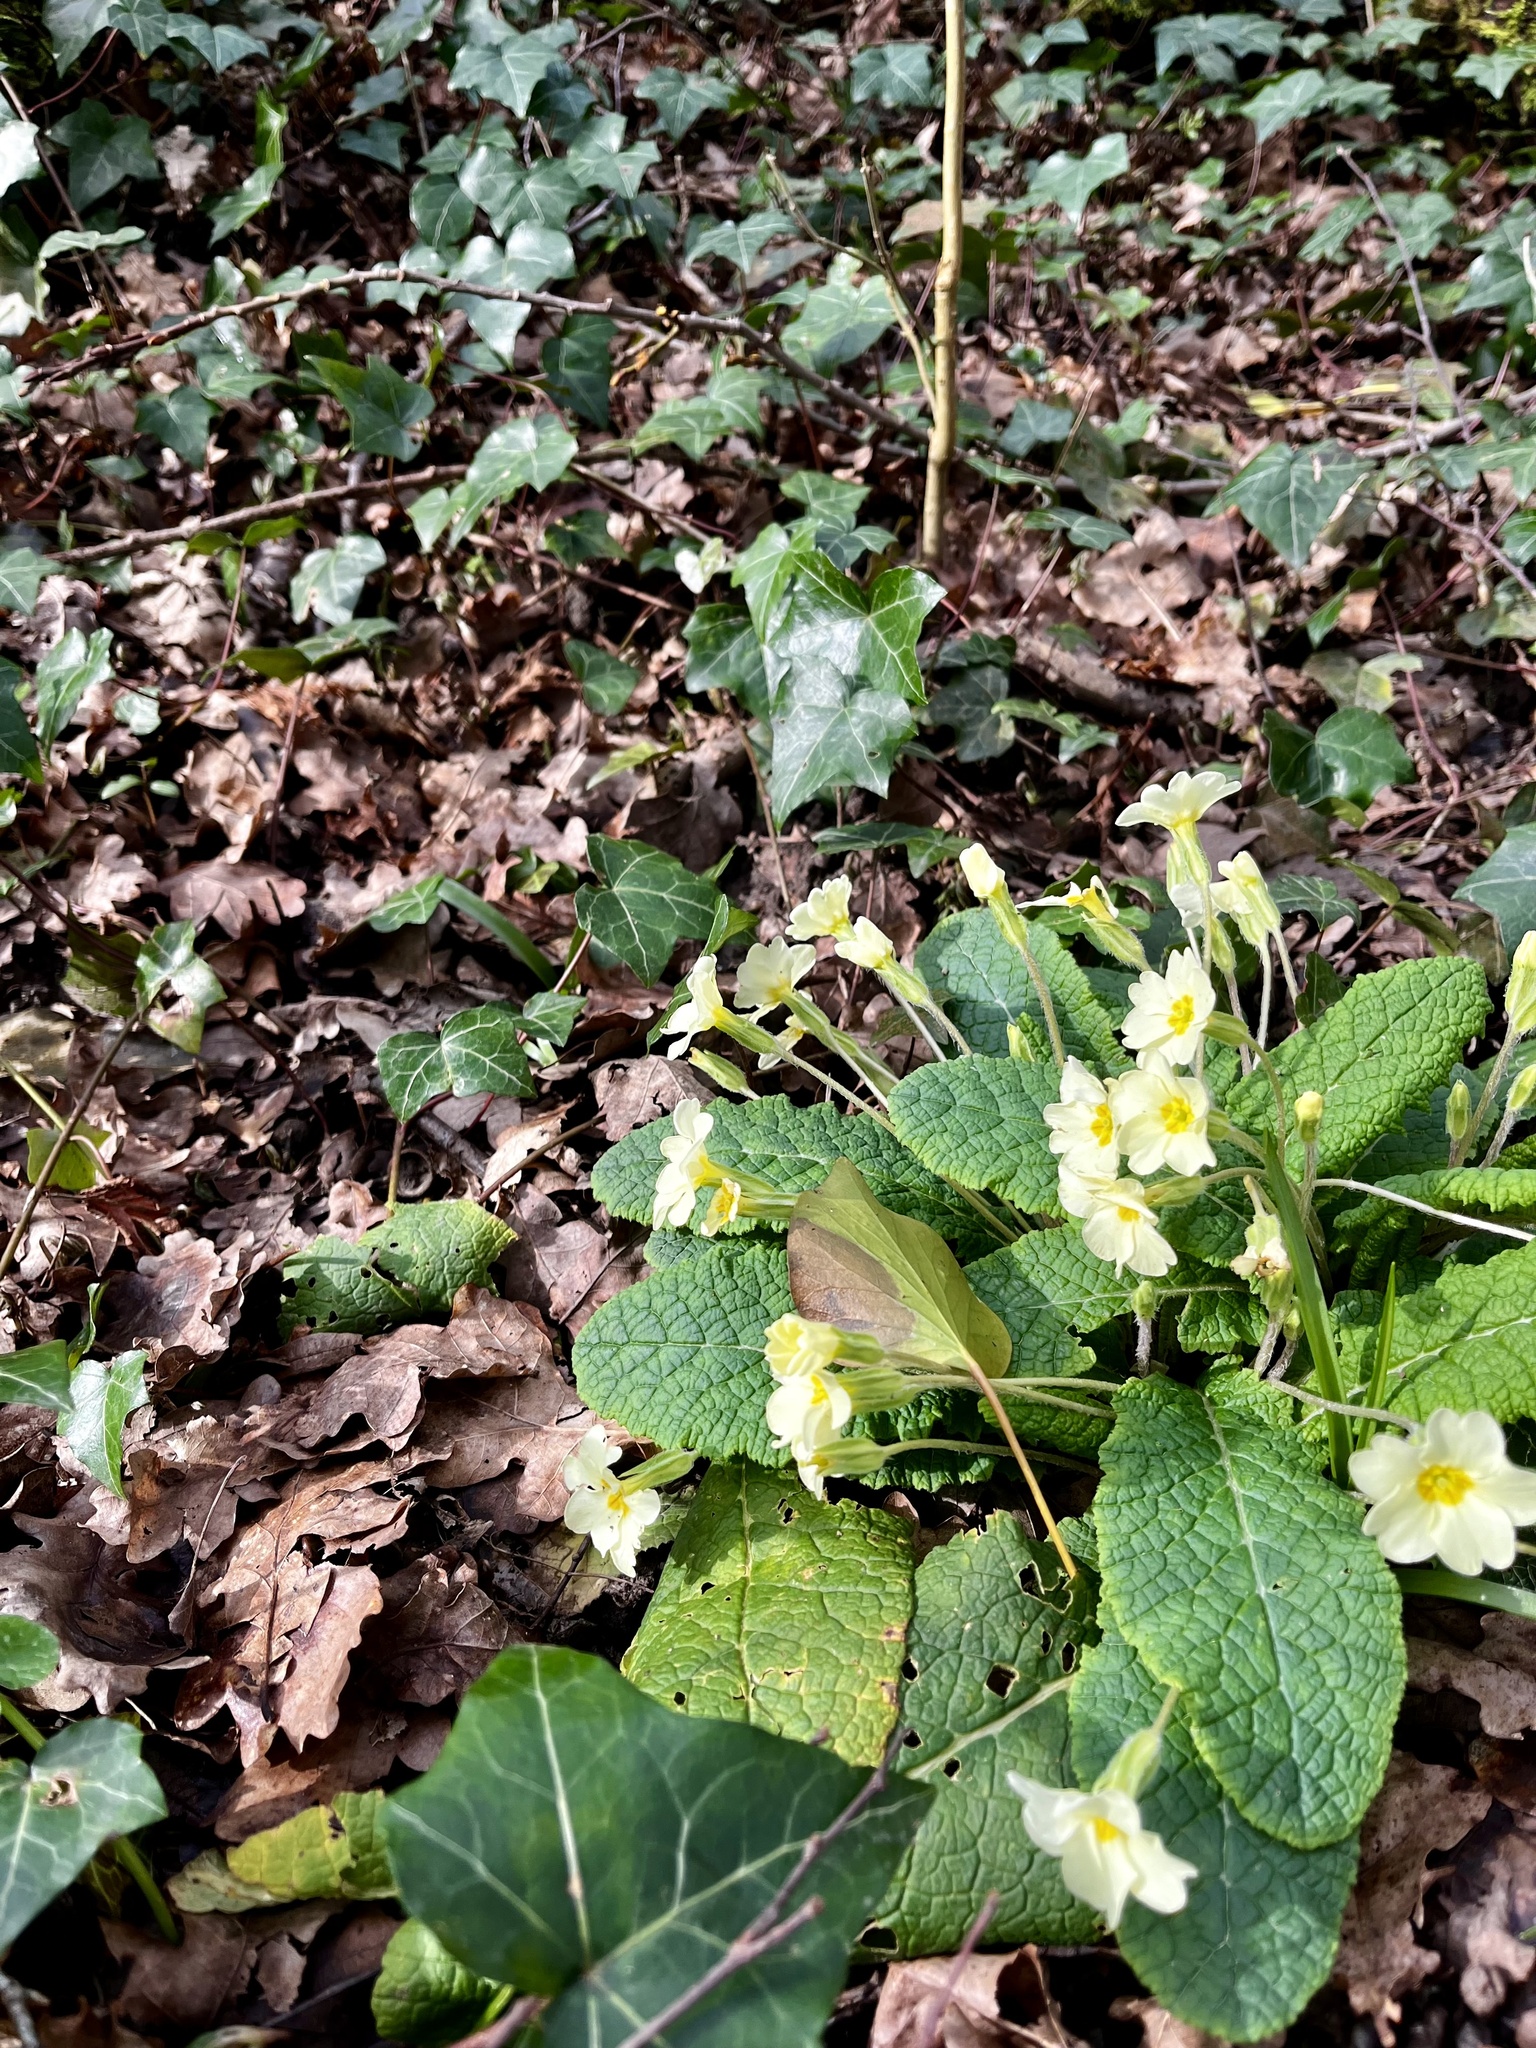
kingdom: Plantae
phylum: Tracheophyta
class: Magnoliopsida
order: Ericales
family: Primulaceae
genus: Primula
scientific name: Primula vulgaris
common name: Primrose
